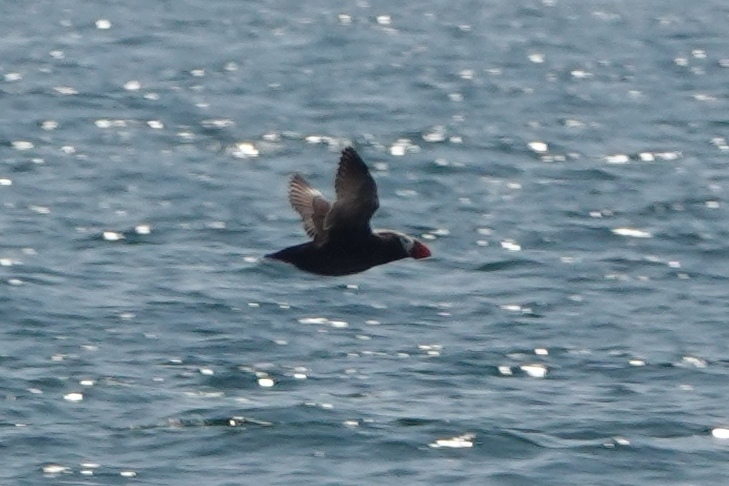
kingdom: Animalia
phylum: Chordata
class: Aves
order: Charadriiformes
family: Alcidae
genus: Fratercula
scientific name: Fratercula cirrhata
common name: Tufted puffin
